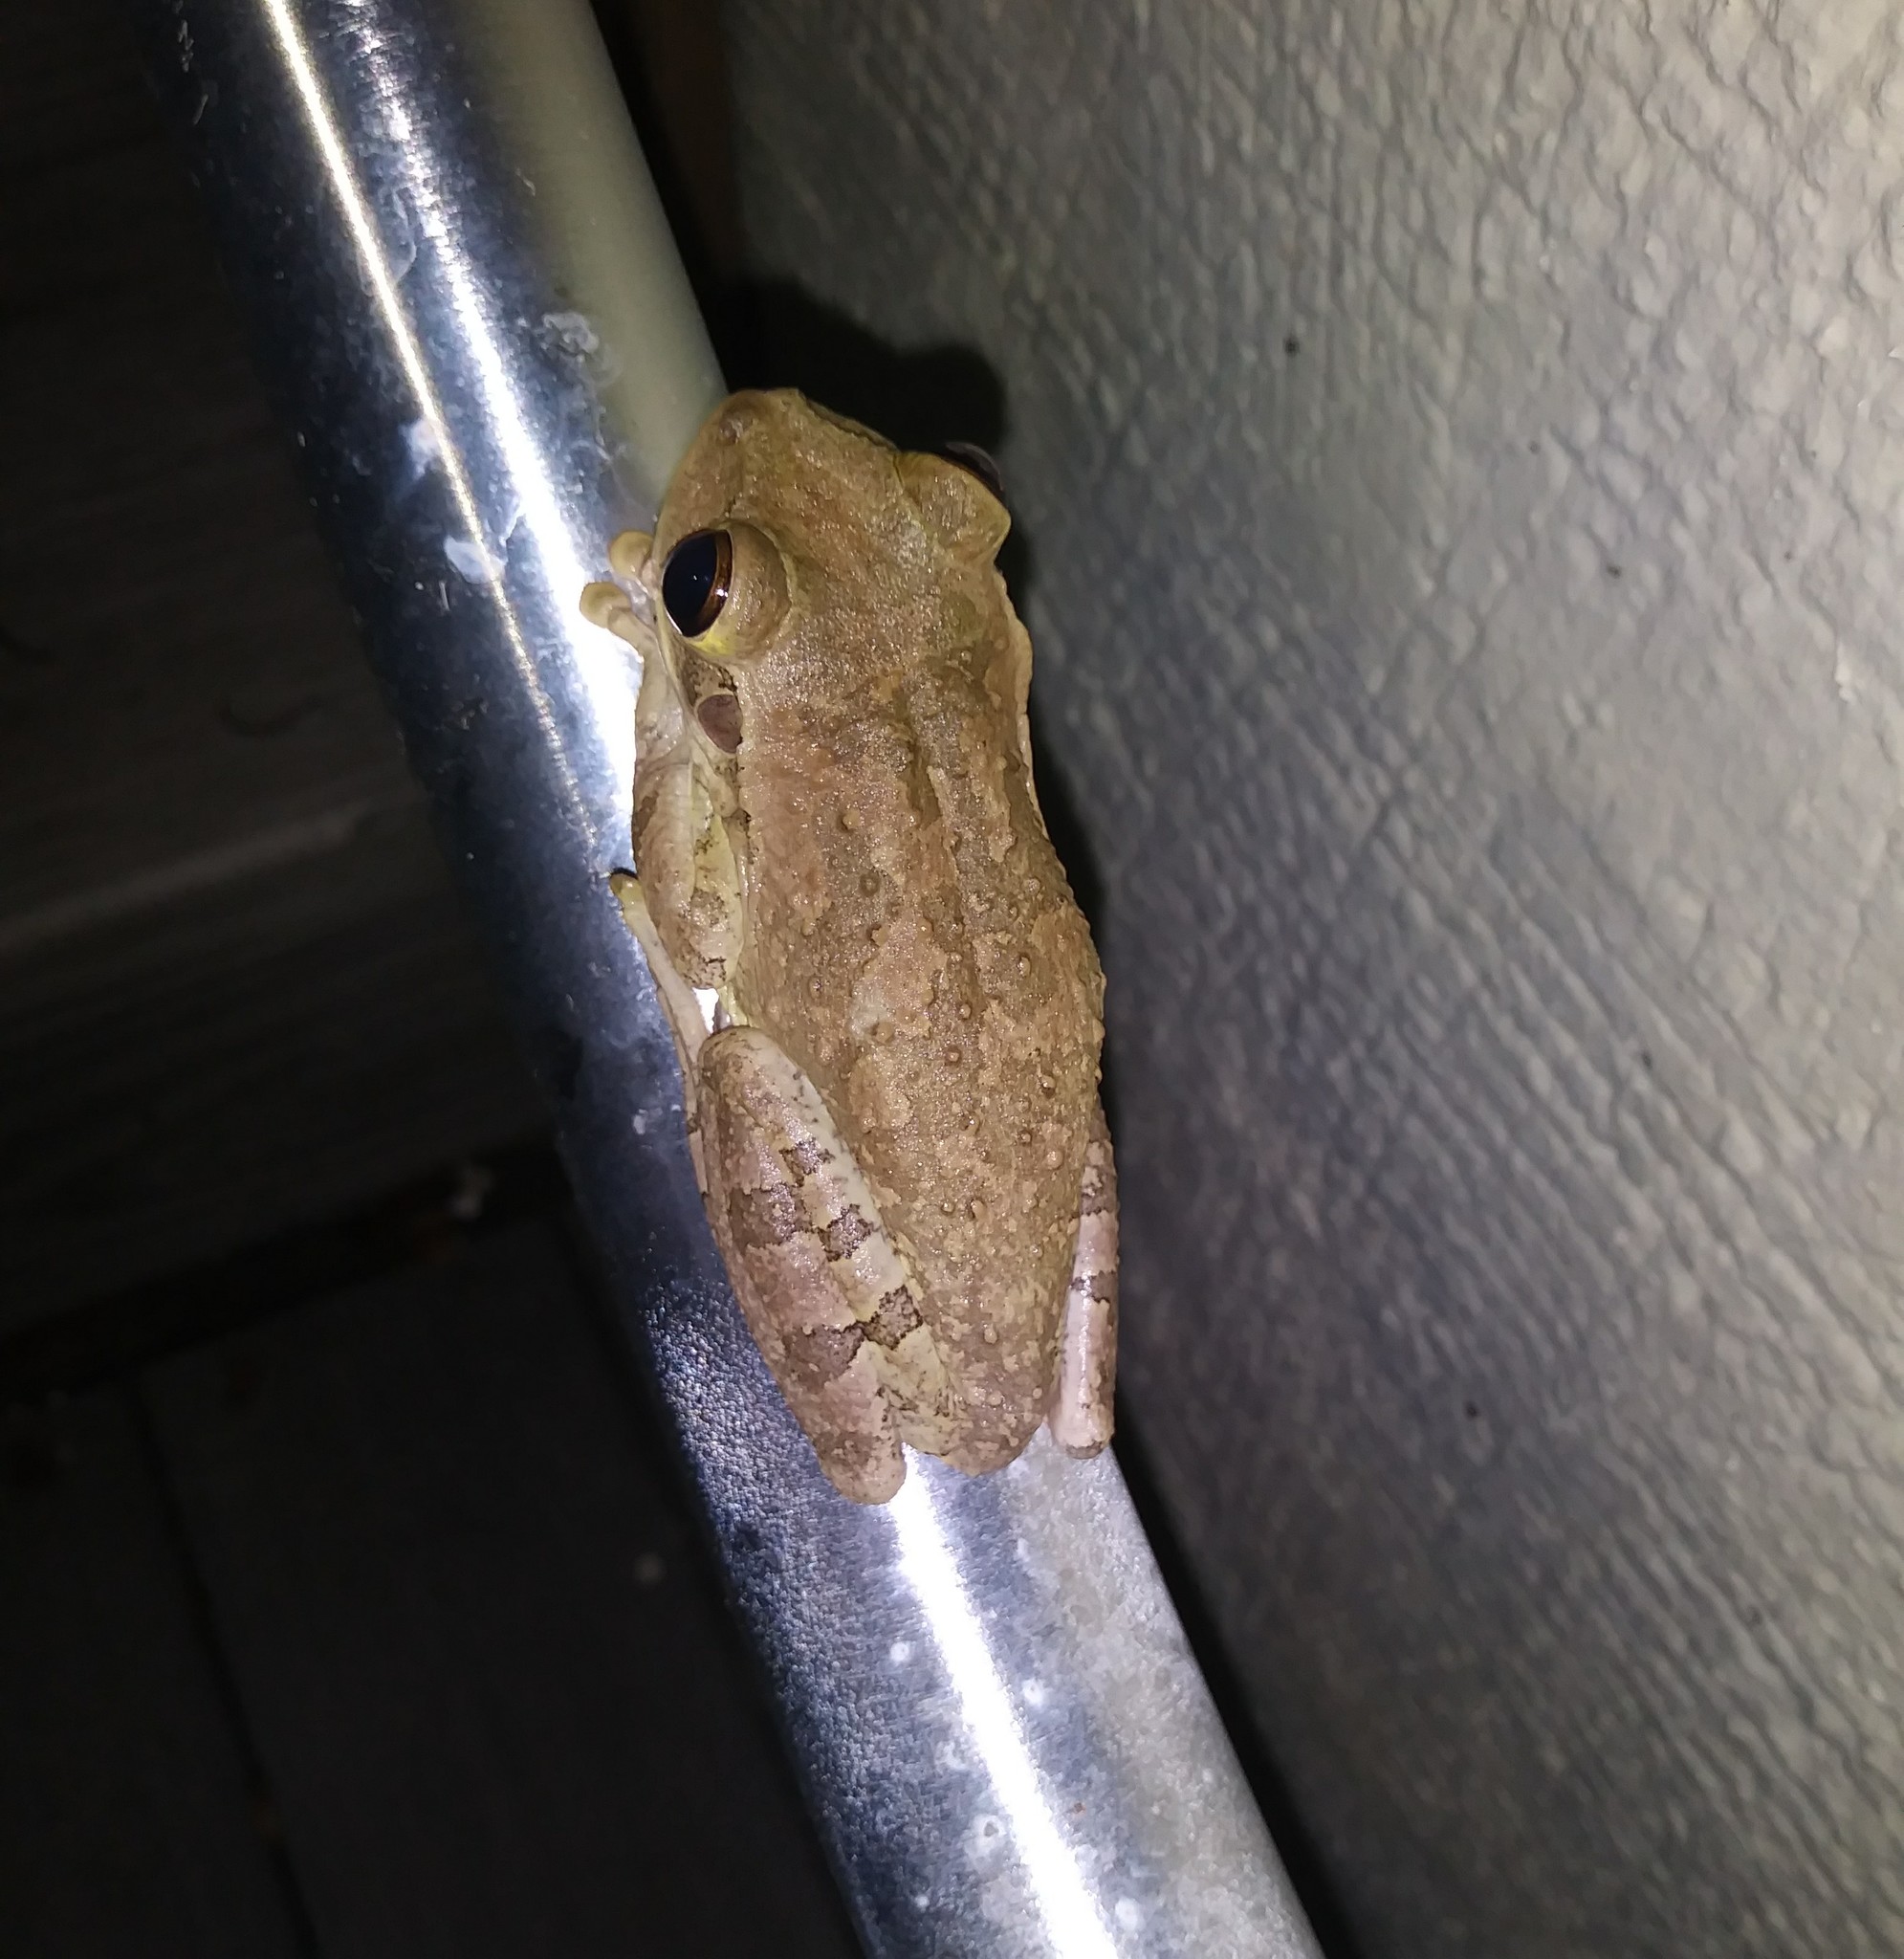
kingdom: Animalia
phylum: Chordata
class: Amphibia
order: Anura
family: Hylidae
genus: Osteopilus
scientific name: Osteopilus septentrionalis
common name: Cuban treefrog
